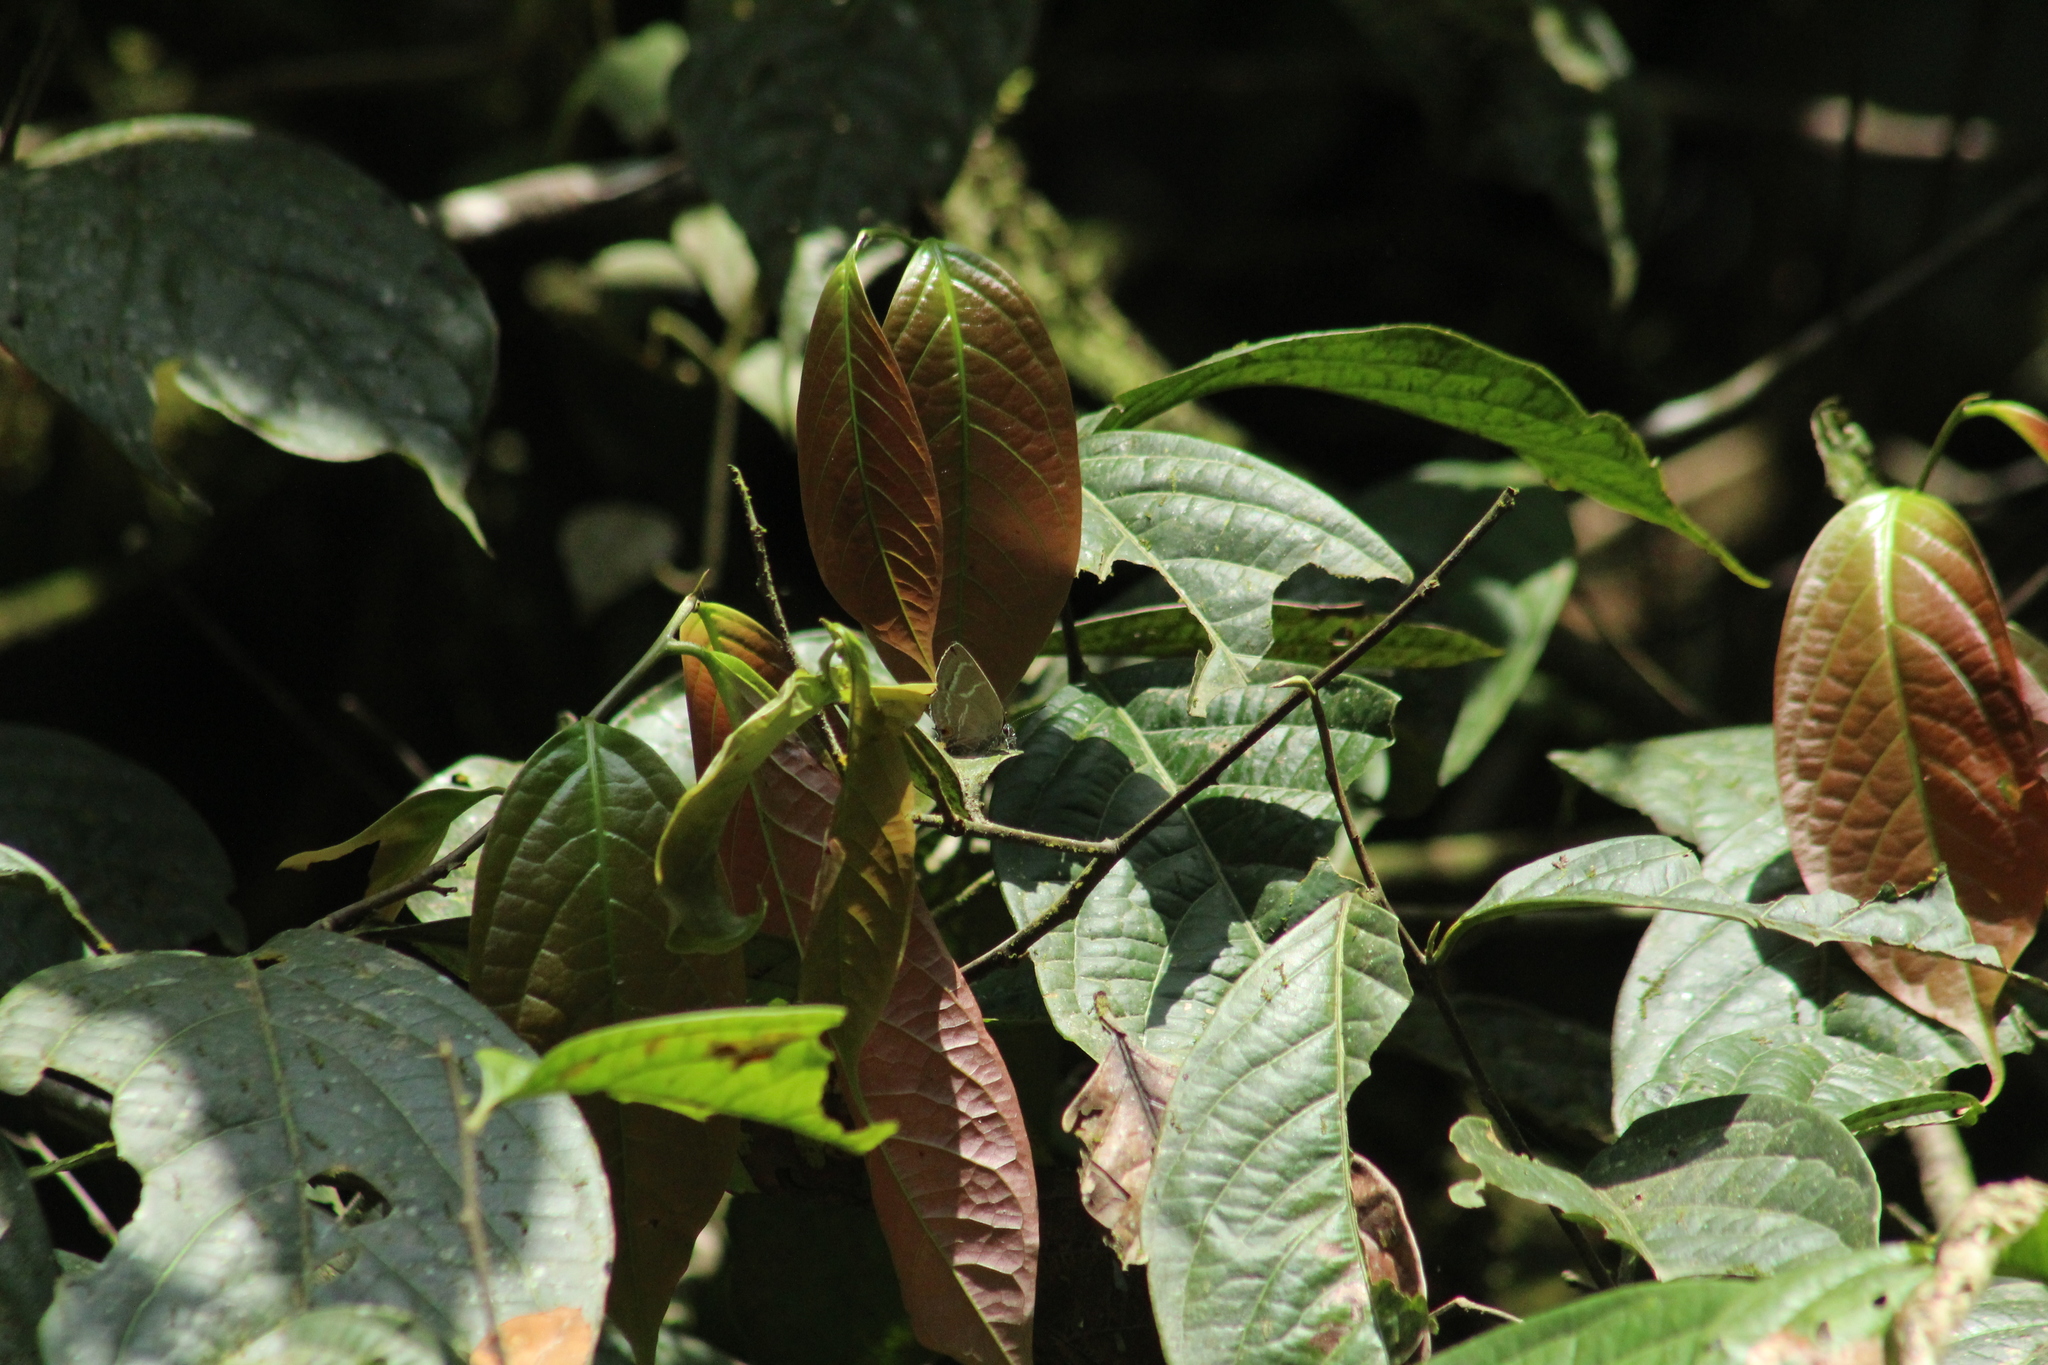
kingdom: Animalia
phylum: Arthropoda
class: Insecta
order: Lepidoptera
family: Lycaenidae
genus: Cupathecla
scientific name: Cupathecla
